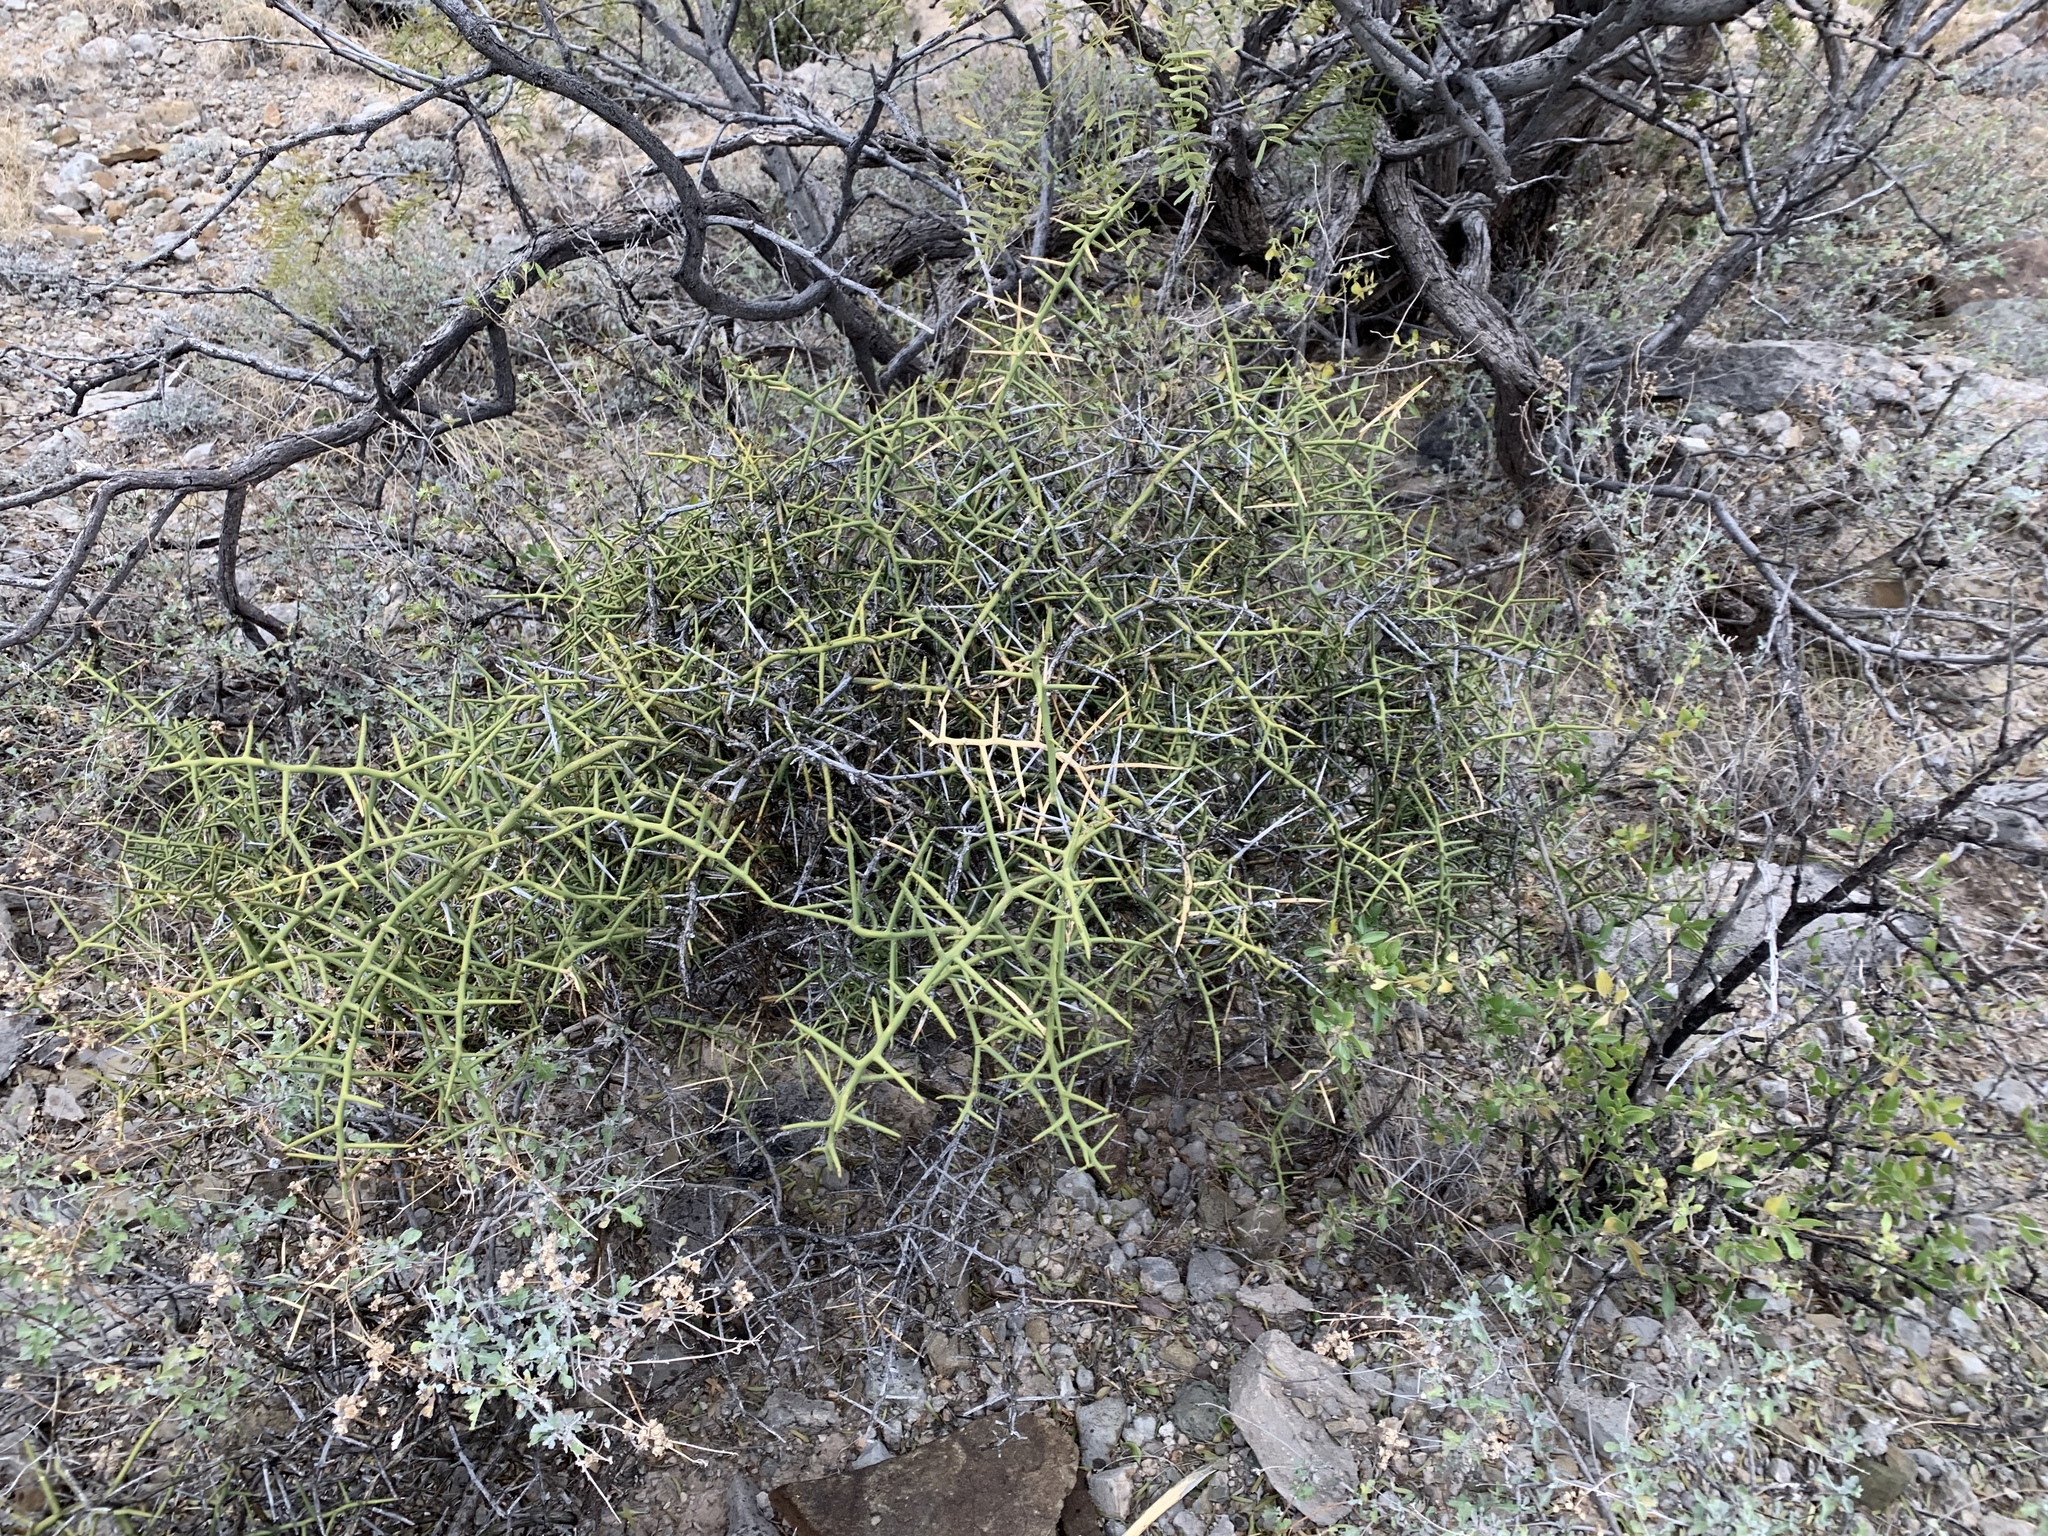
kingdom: Plantae
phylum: Tracheophyta
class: Magnoliopsida
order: Brassicales
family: Koeberliniaceae
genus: Koeberlinia
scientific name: Koeberlinia spinosa
